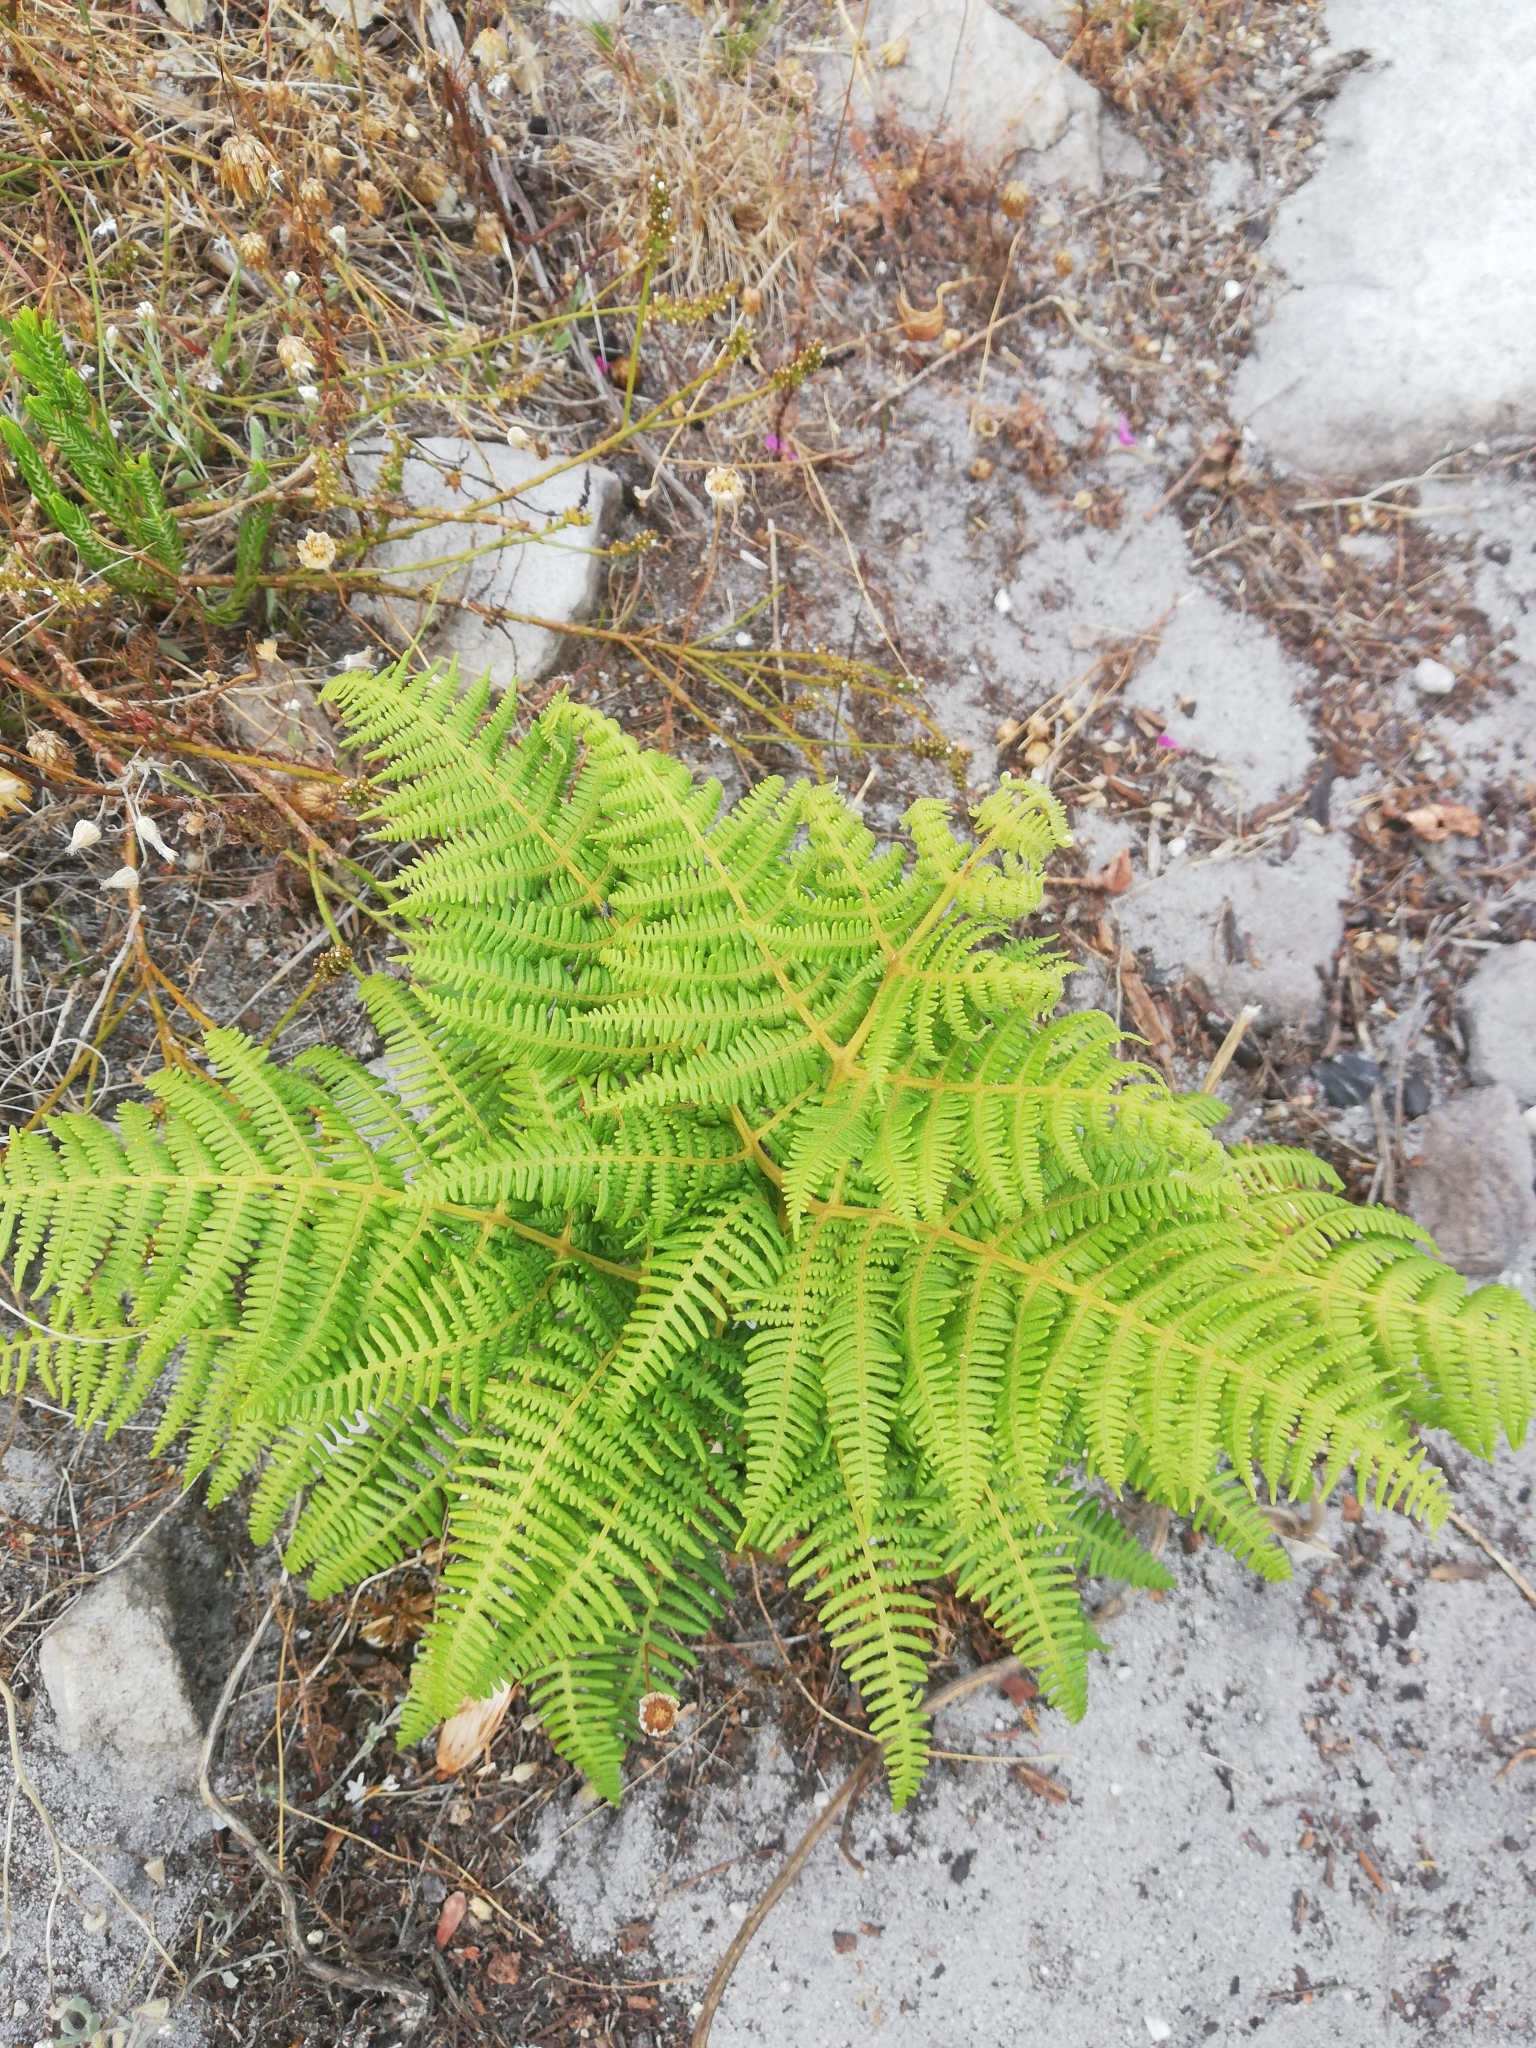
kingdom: Plantae
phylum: Tracheophyta
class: Polypodiopsida
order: Polypodiales
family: Dennstaedtiaceae
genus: Pteridium
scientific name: Pteridium aquilinum
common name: Bracken
